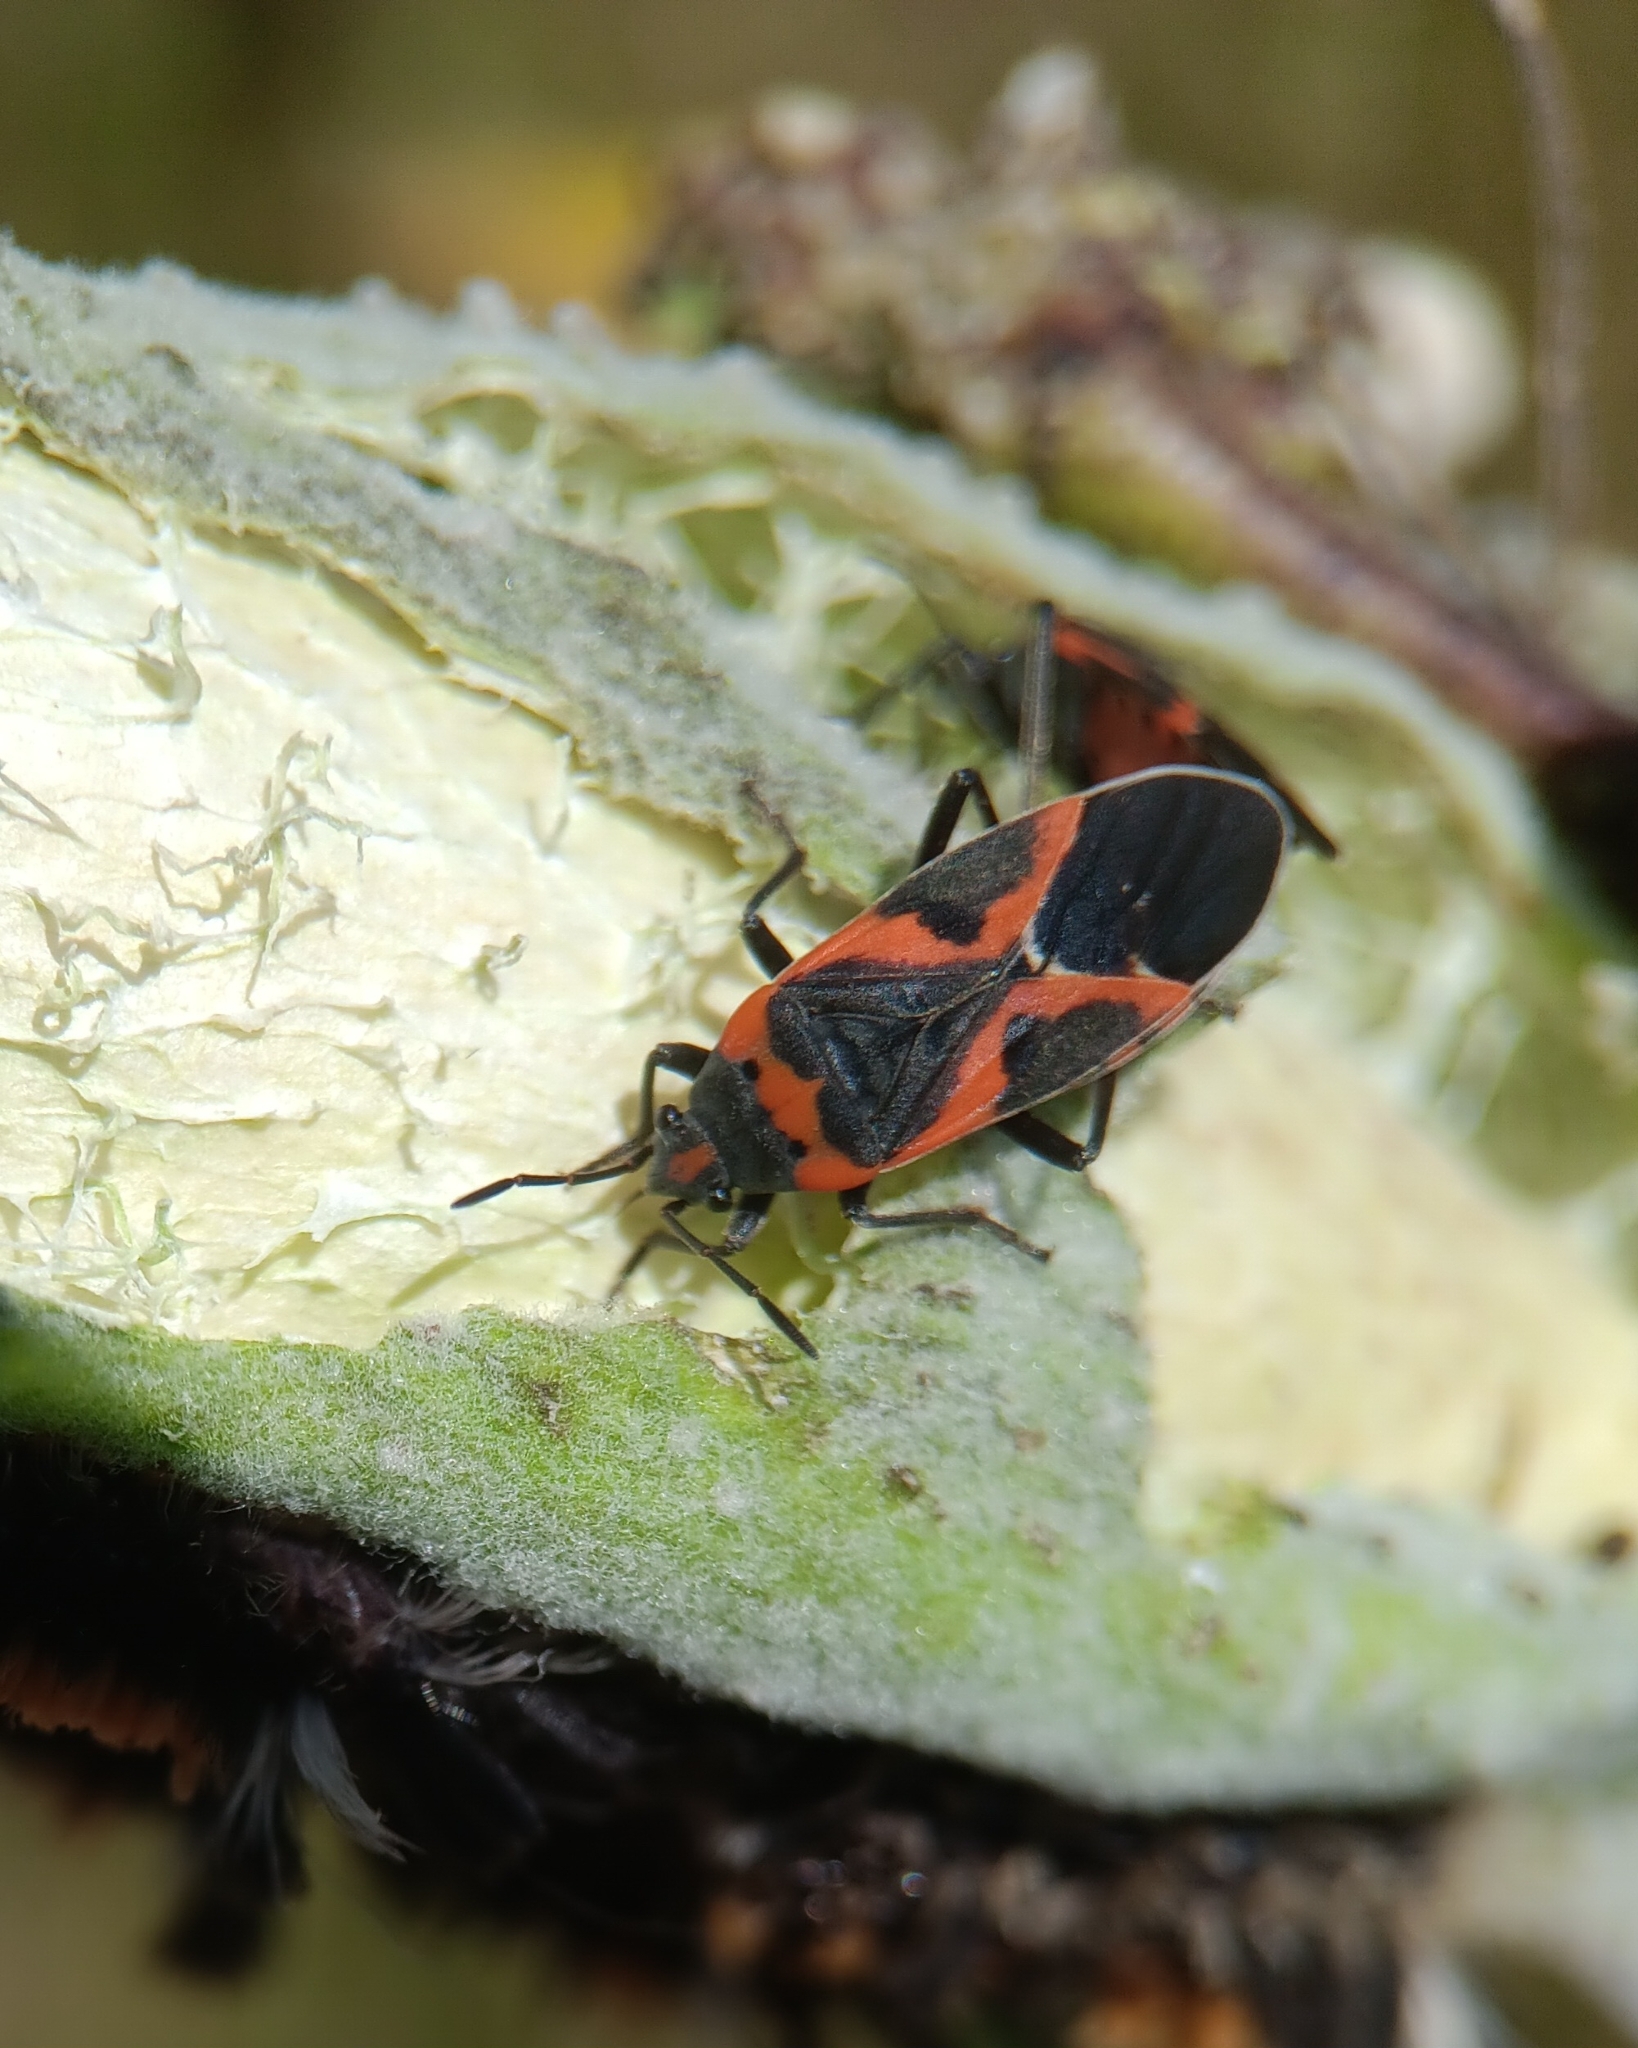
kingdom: Animalia
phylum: Arthropoda
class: Insecta
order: Hemiptera
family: Lygaeidae
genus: Lygaeus
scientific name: Lygaeus kalmii
